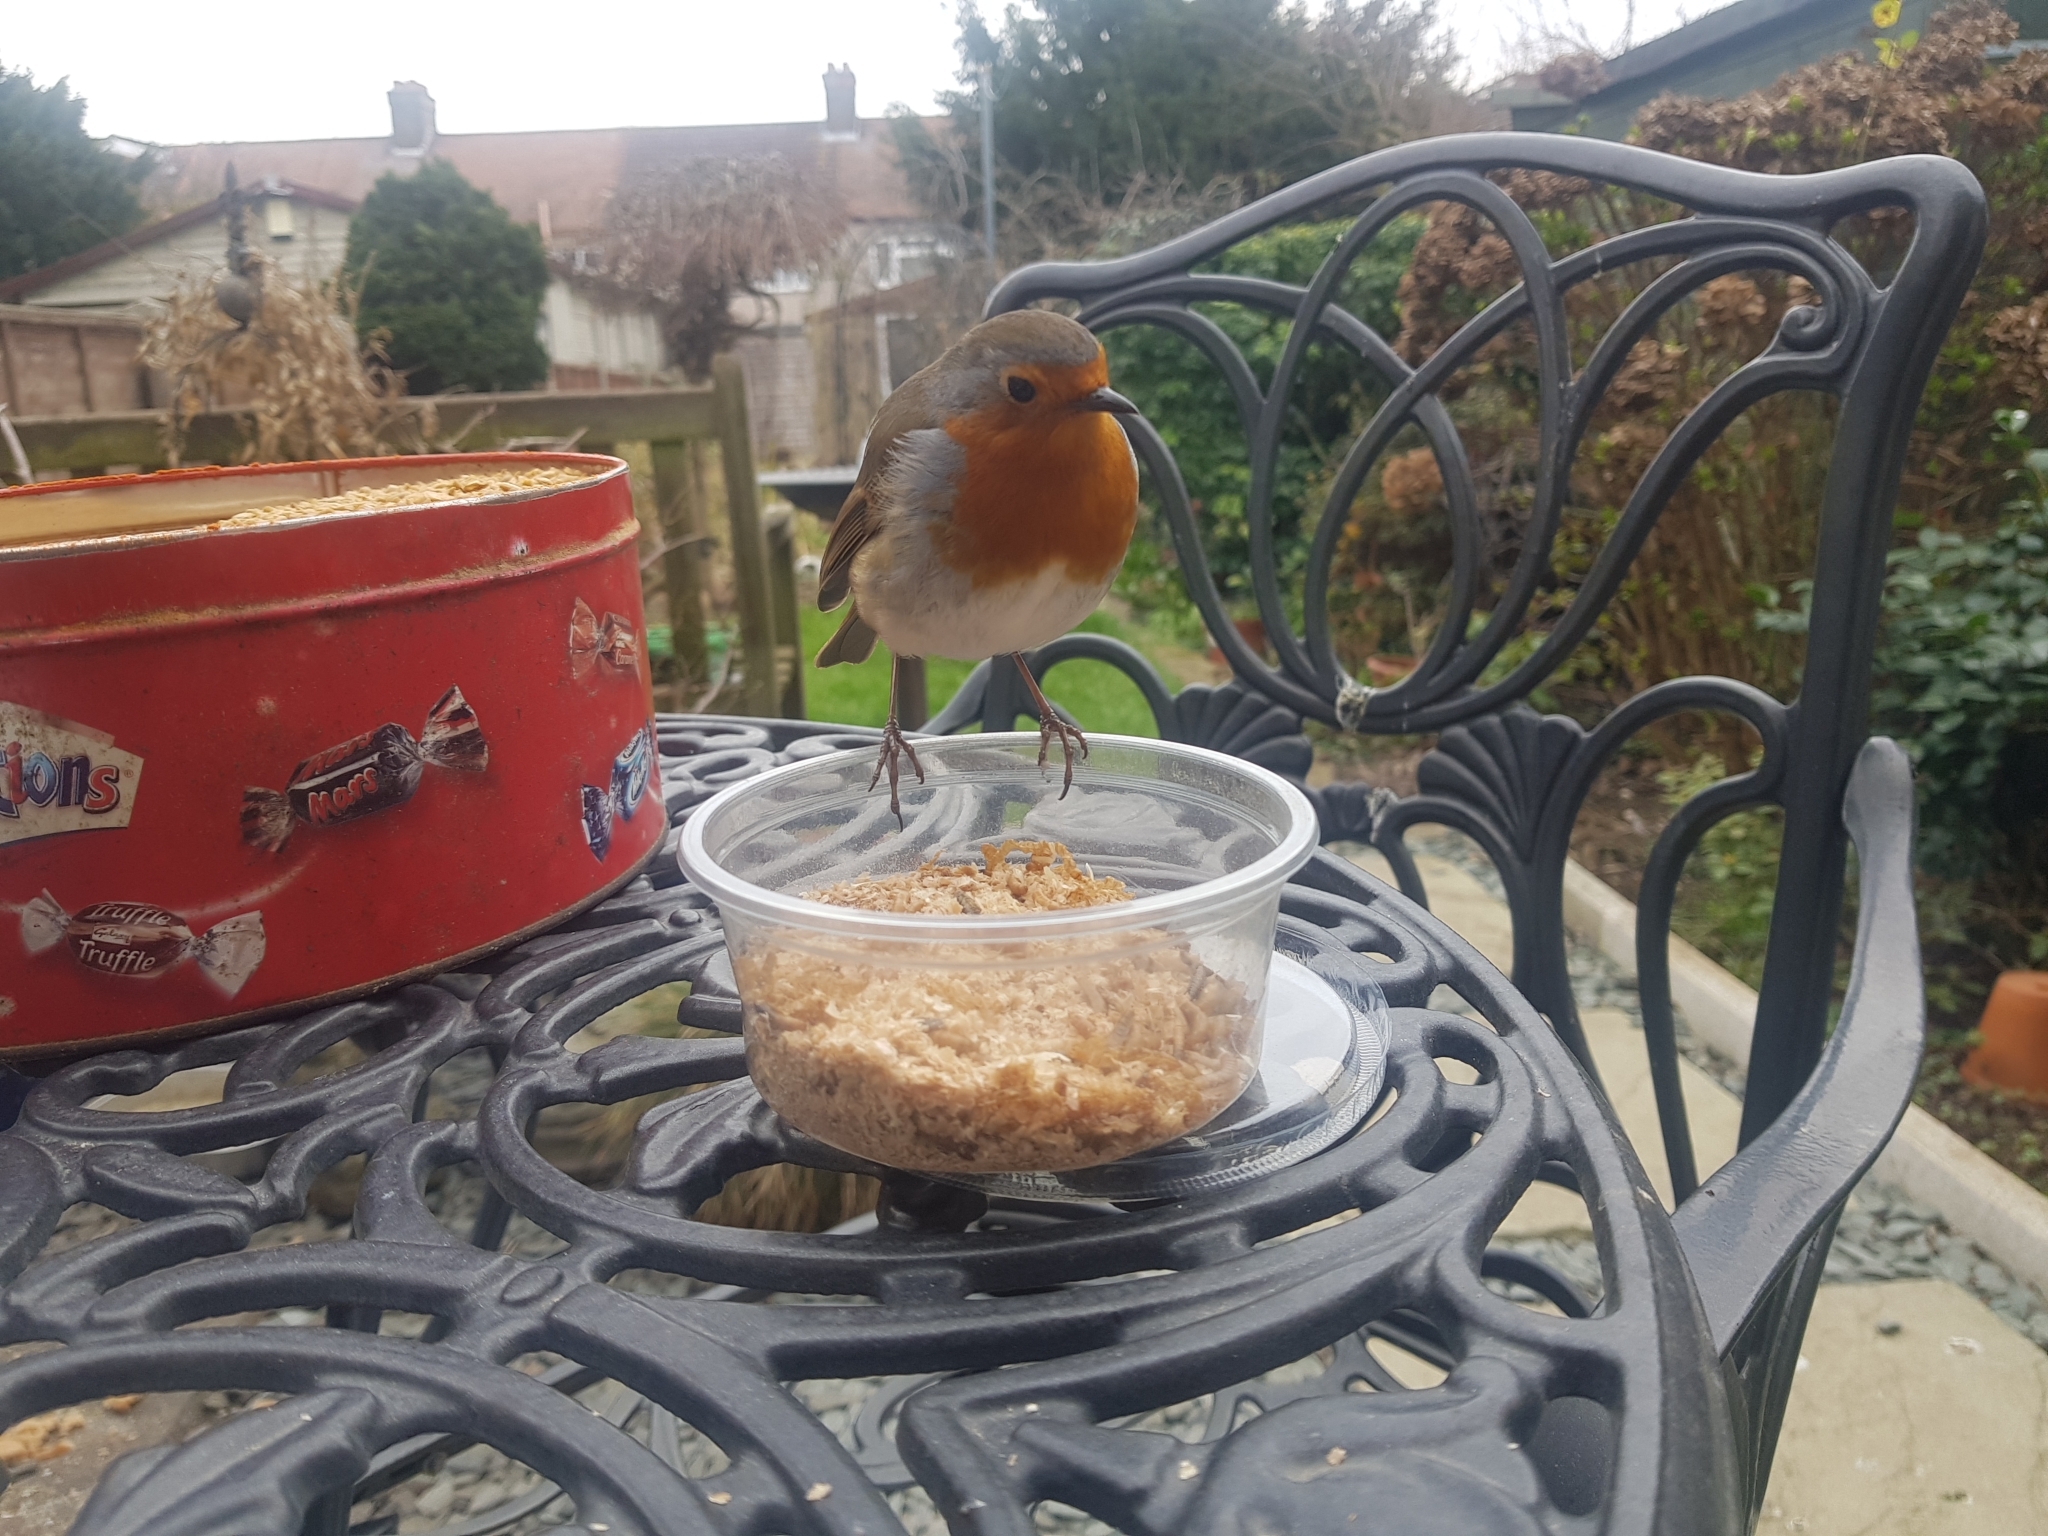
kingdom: Animalia
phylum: Chordata
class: Aves
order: Passeriformes
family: Muscicapidae
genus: Erithacus
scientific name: Erithacus rubecula
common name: European robin
